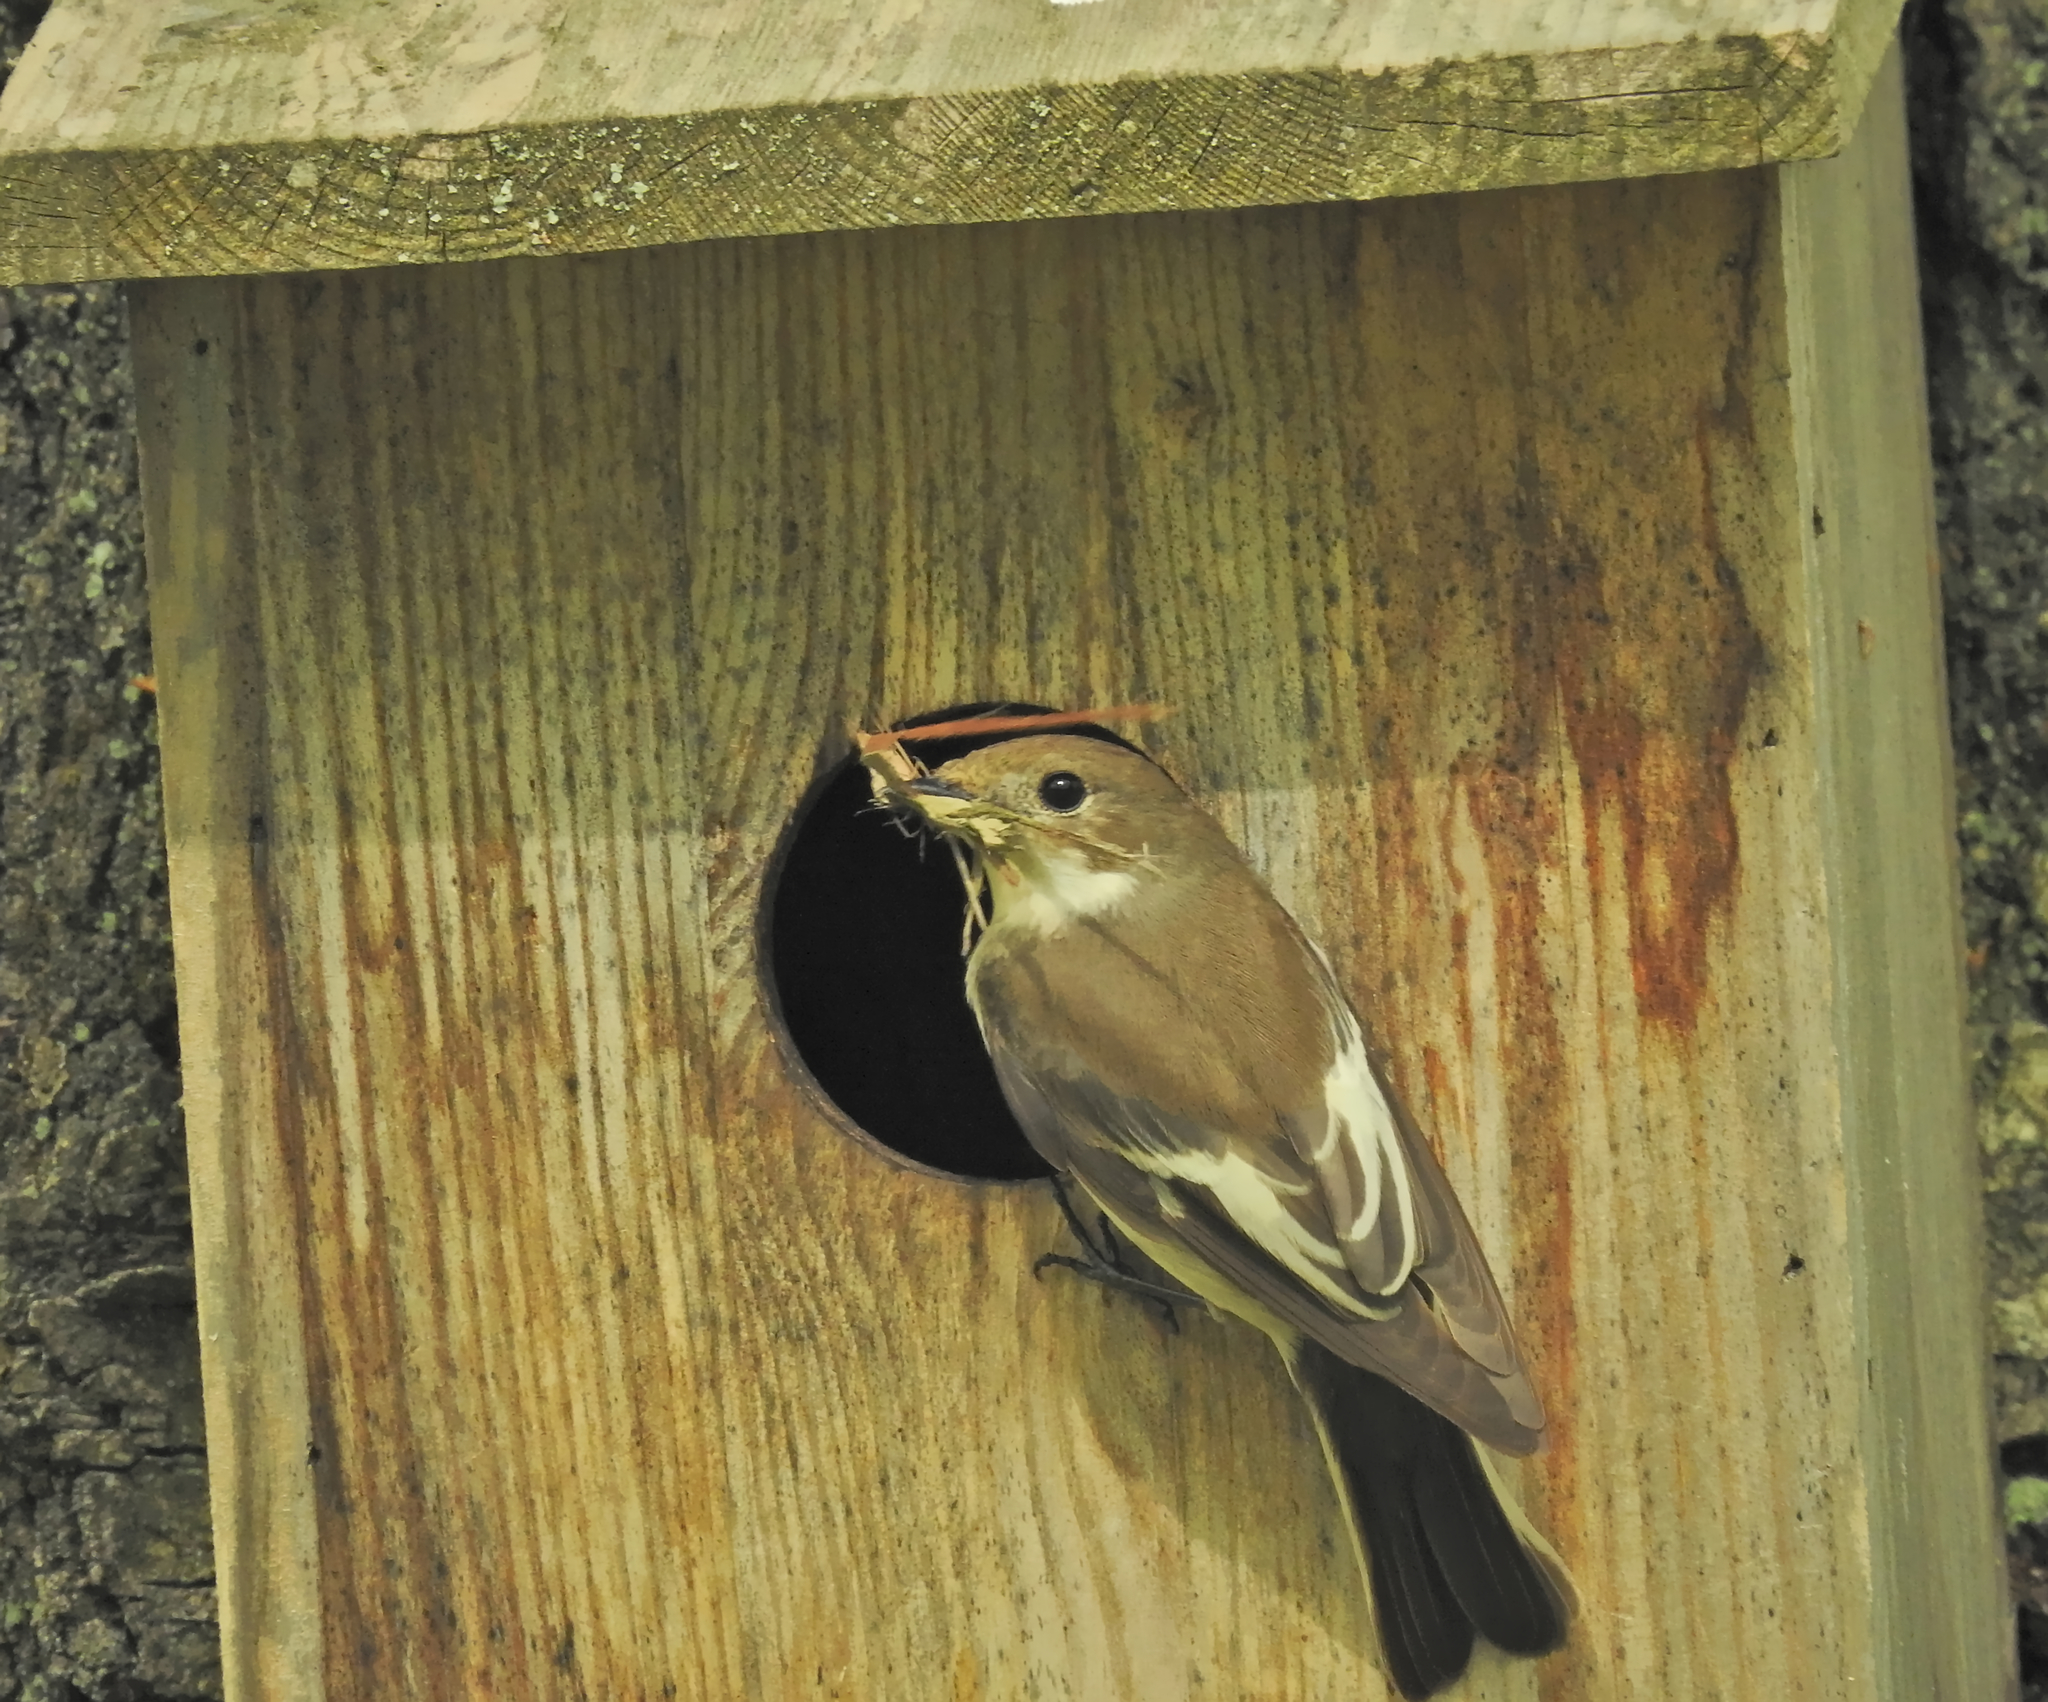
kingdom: Animalia
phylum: Chordata
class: Aves
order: Passeriformes
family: Muscicapidae
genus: Ficedula
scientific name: Ficedula hypoleuca
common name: European pied flycatcher
